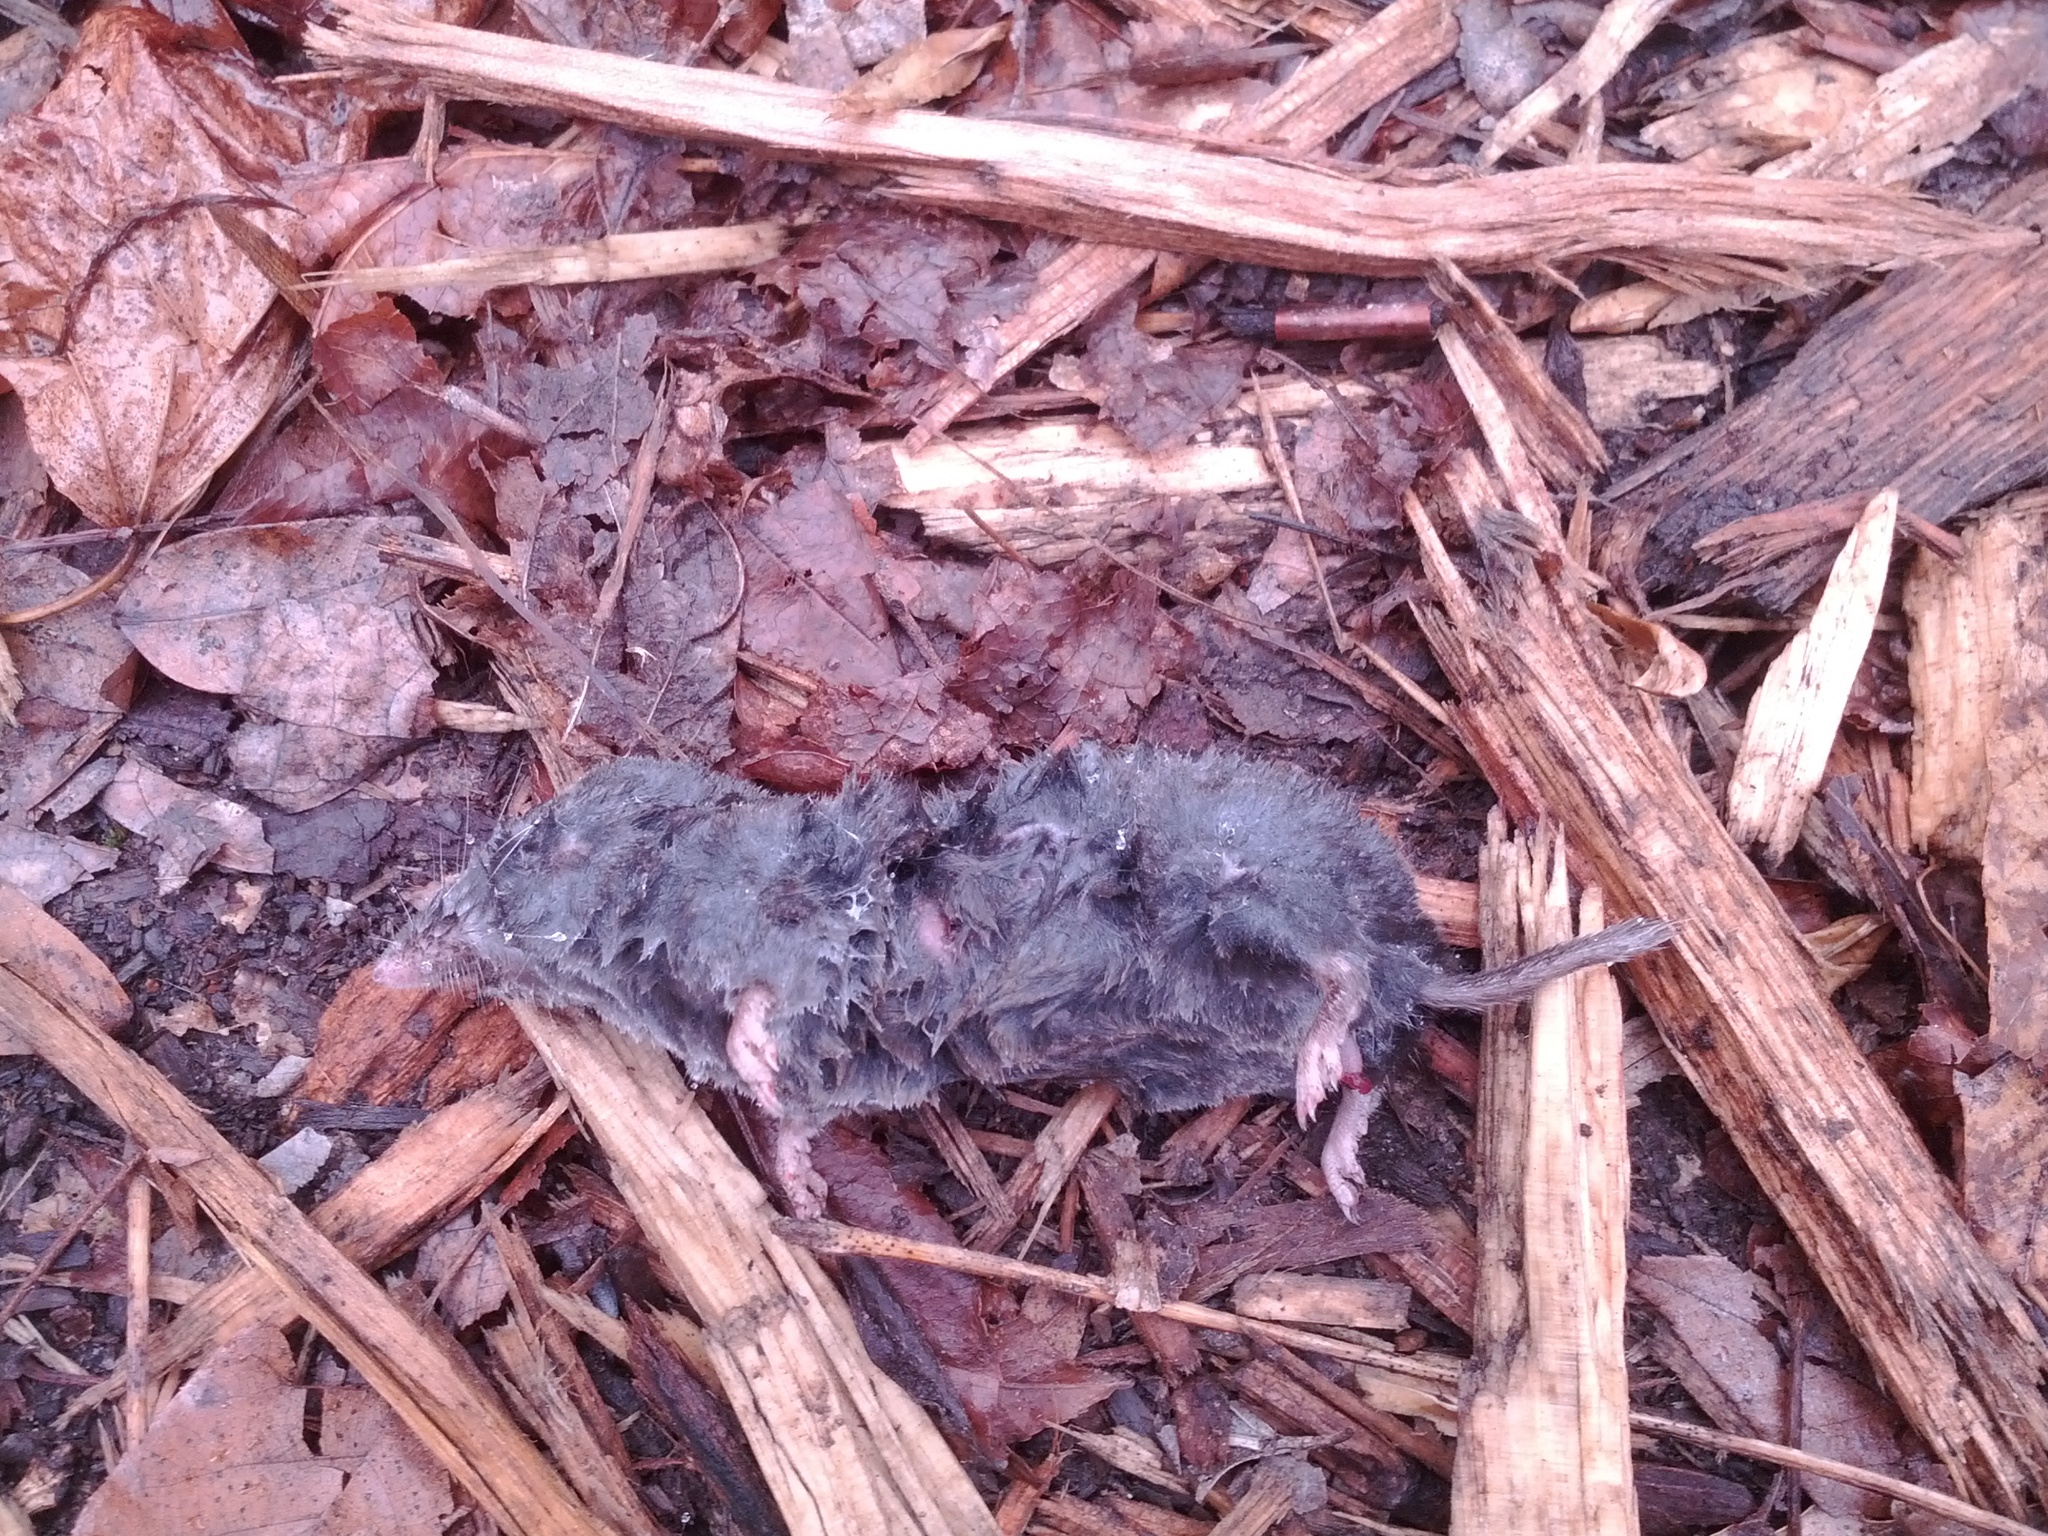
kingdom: Animalia
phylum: Chordata
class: Mammalia
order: Soricomorpha
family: Soricidae
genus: Blarina
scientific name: Blarina brevicauda
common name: Northern short-tailed shrew
